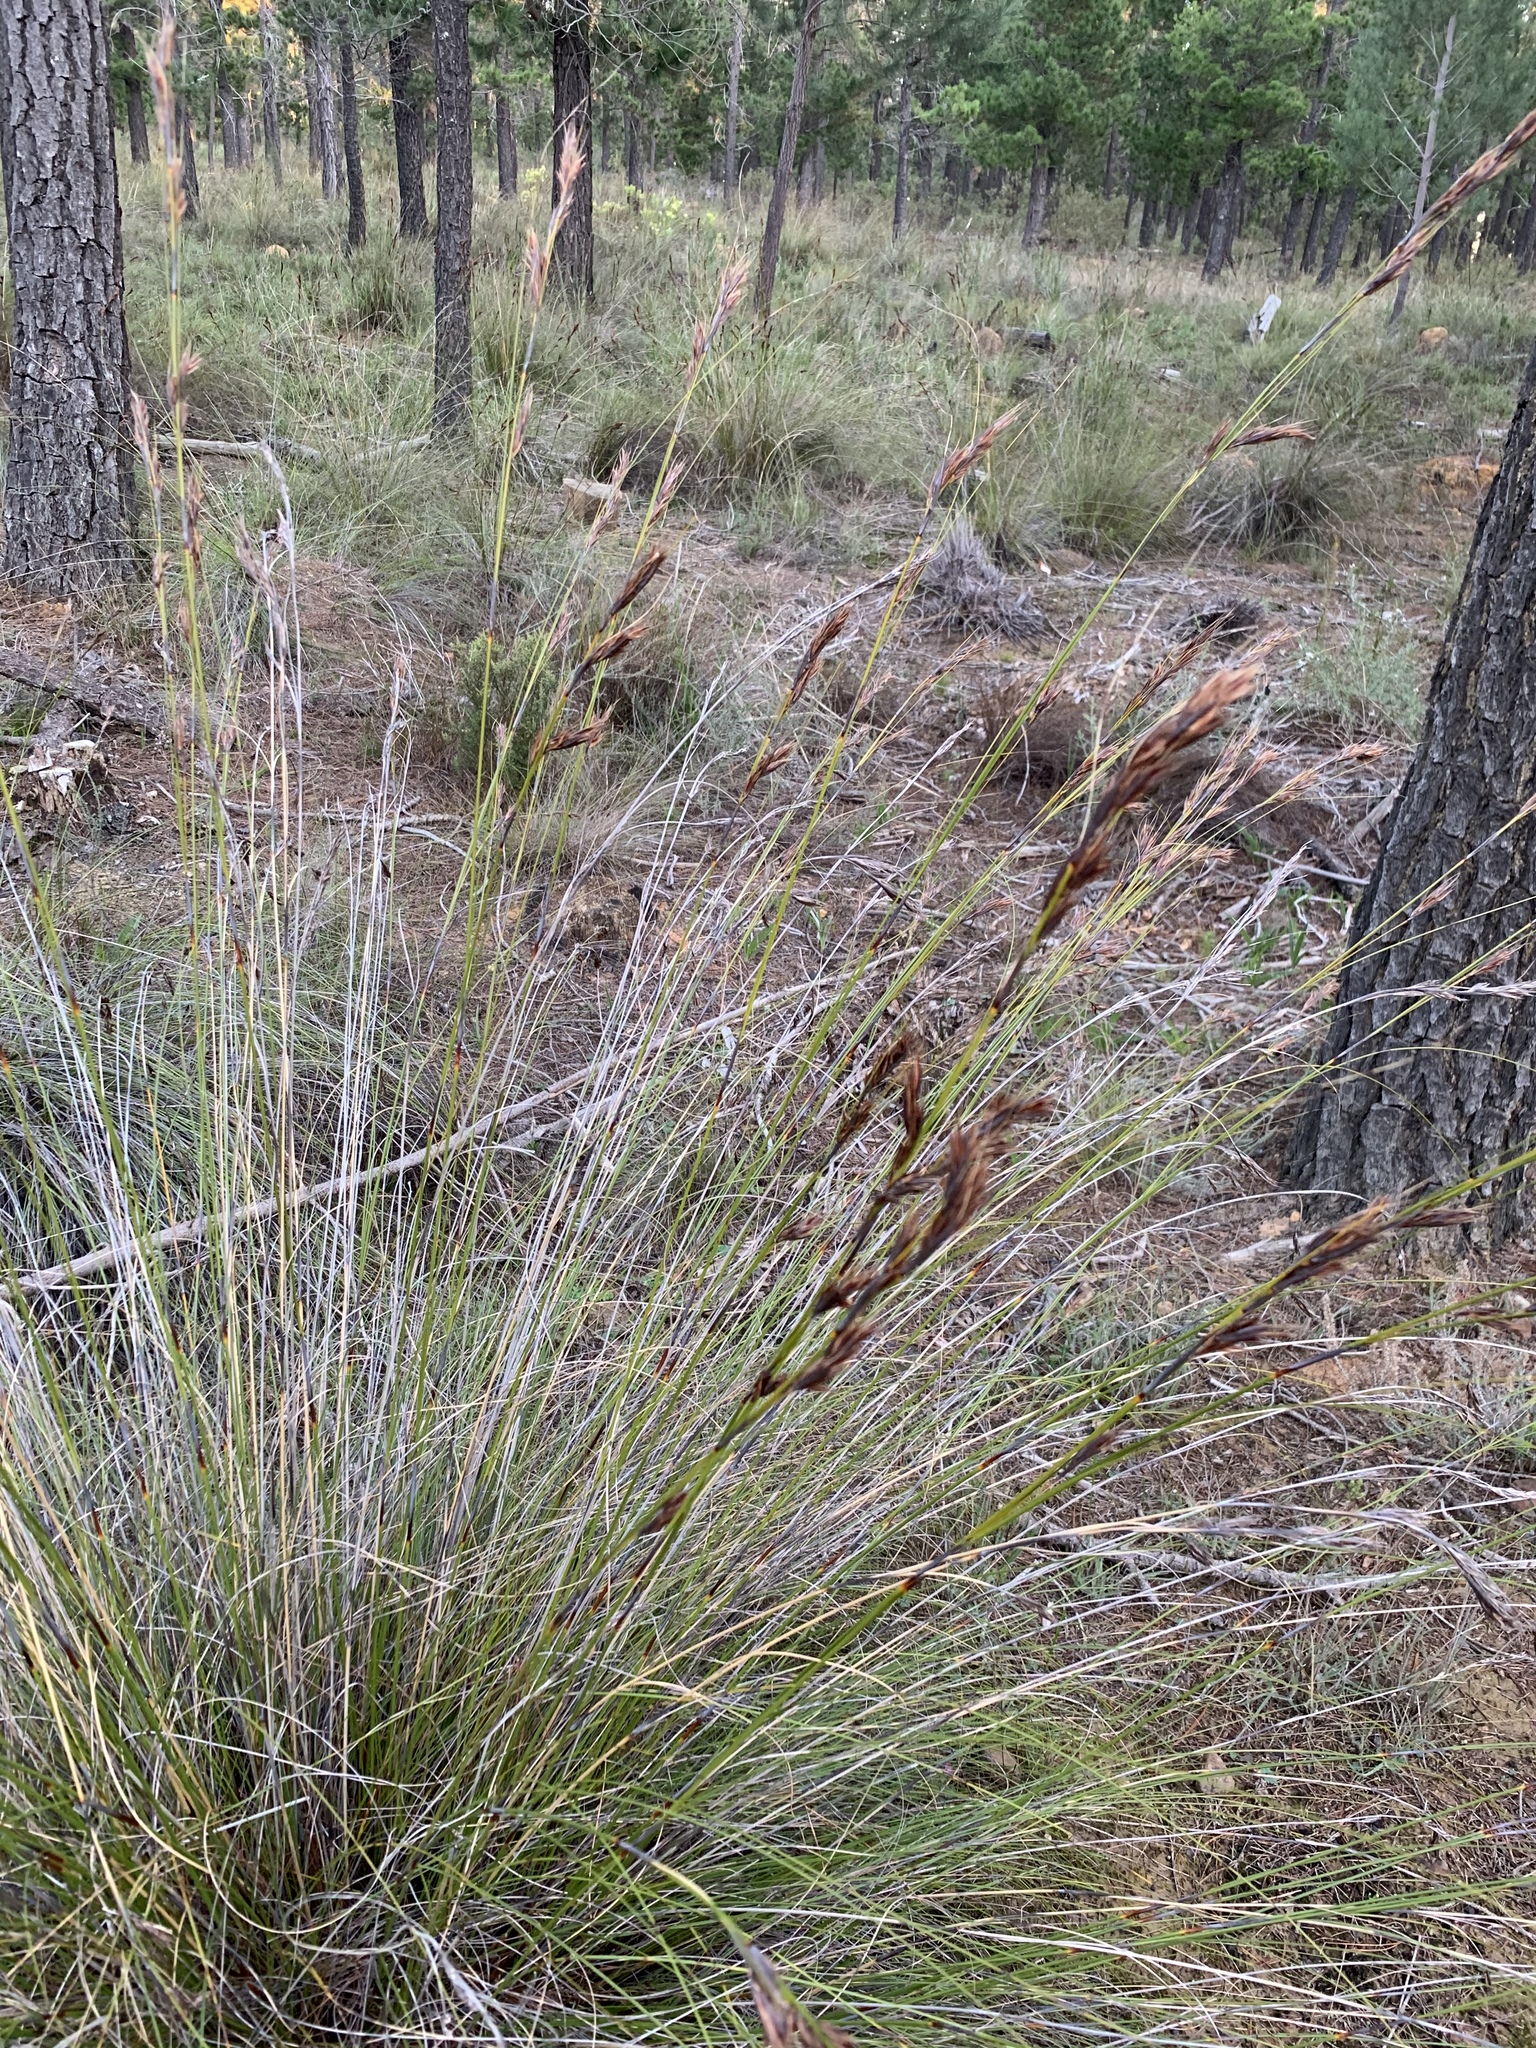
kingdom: Plantae
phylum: Tracheophyta
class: Liliopsida
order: Poales
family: Cyperaceae
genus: Tetraria
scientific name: Tetraria ustulata
